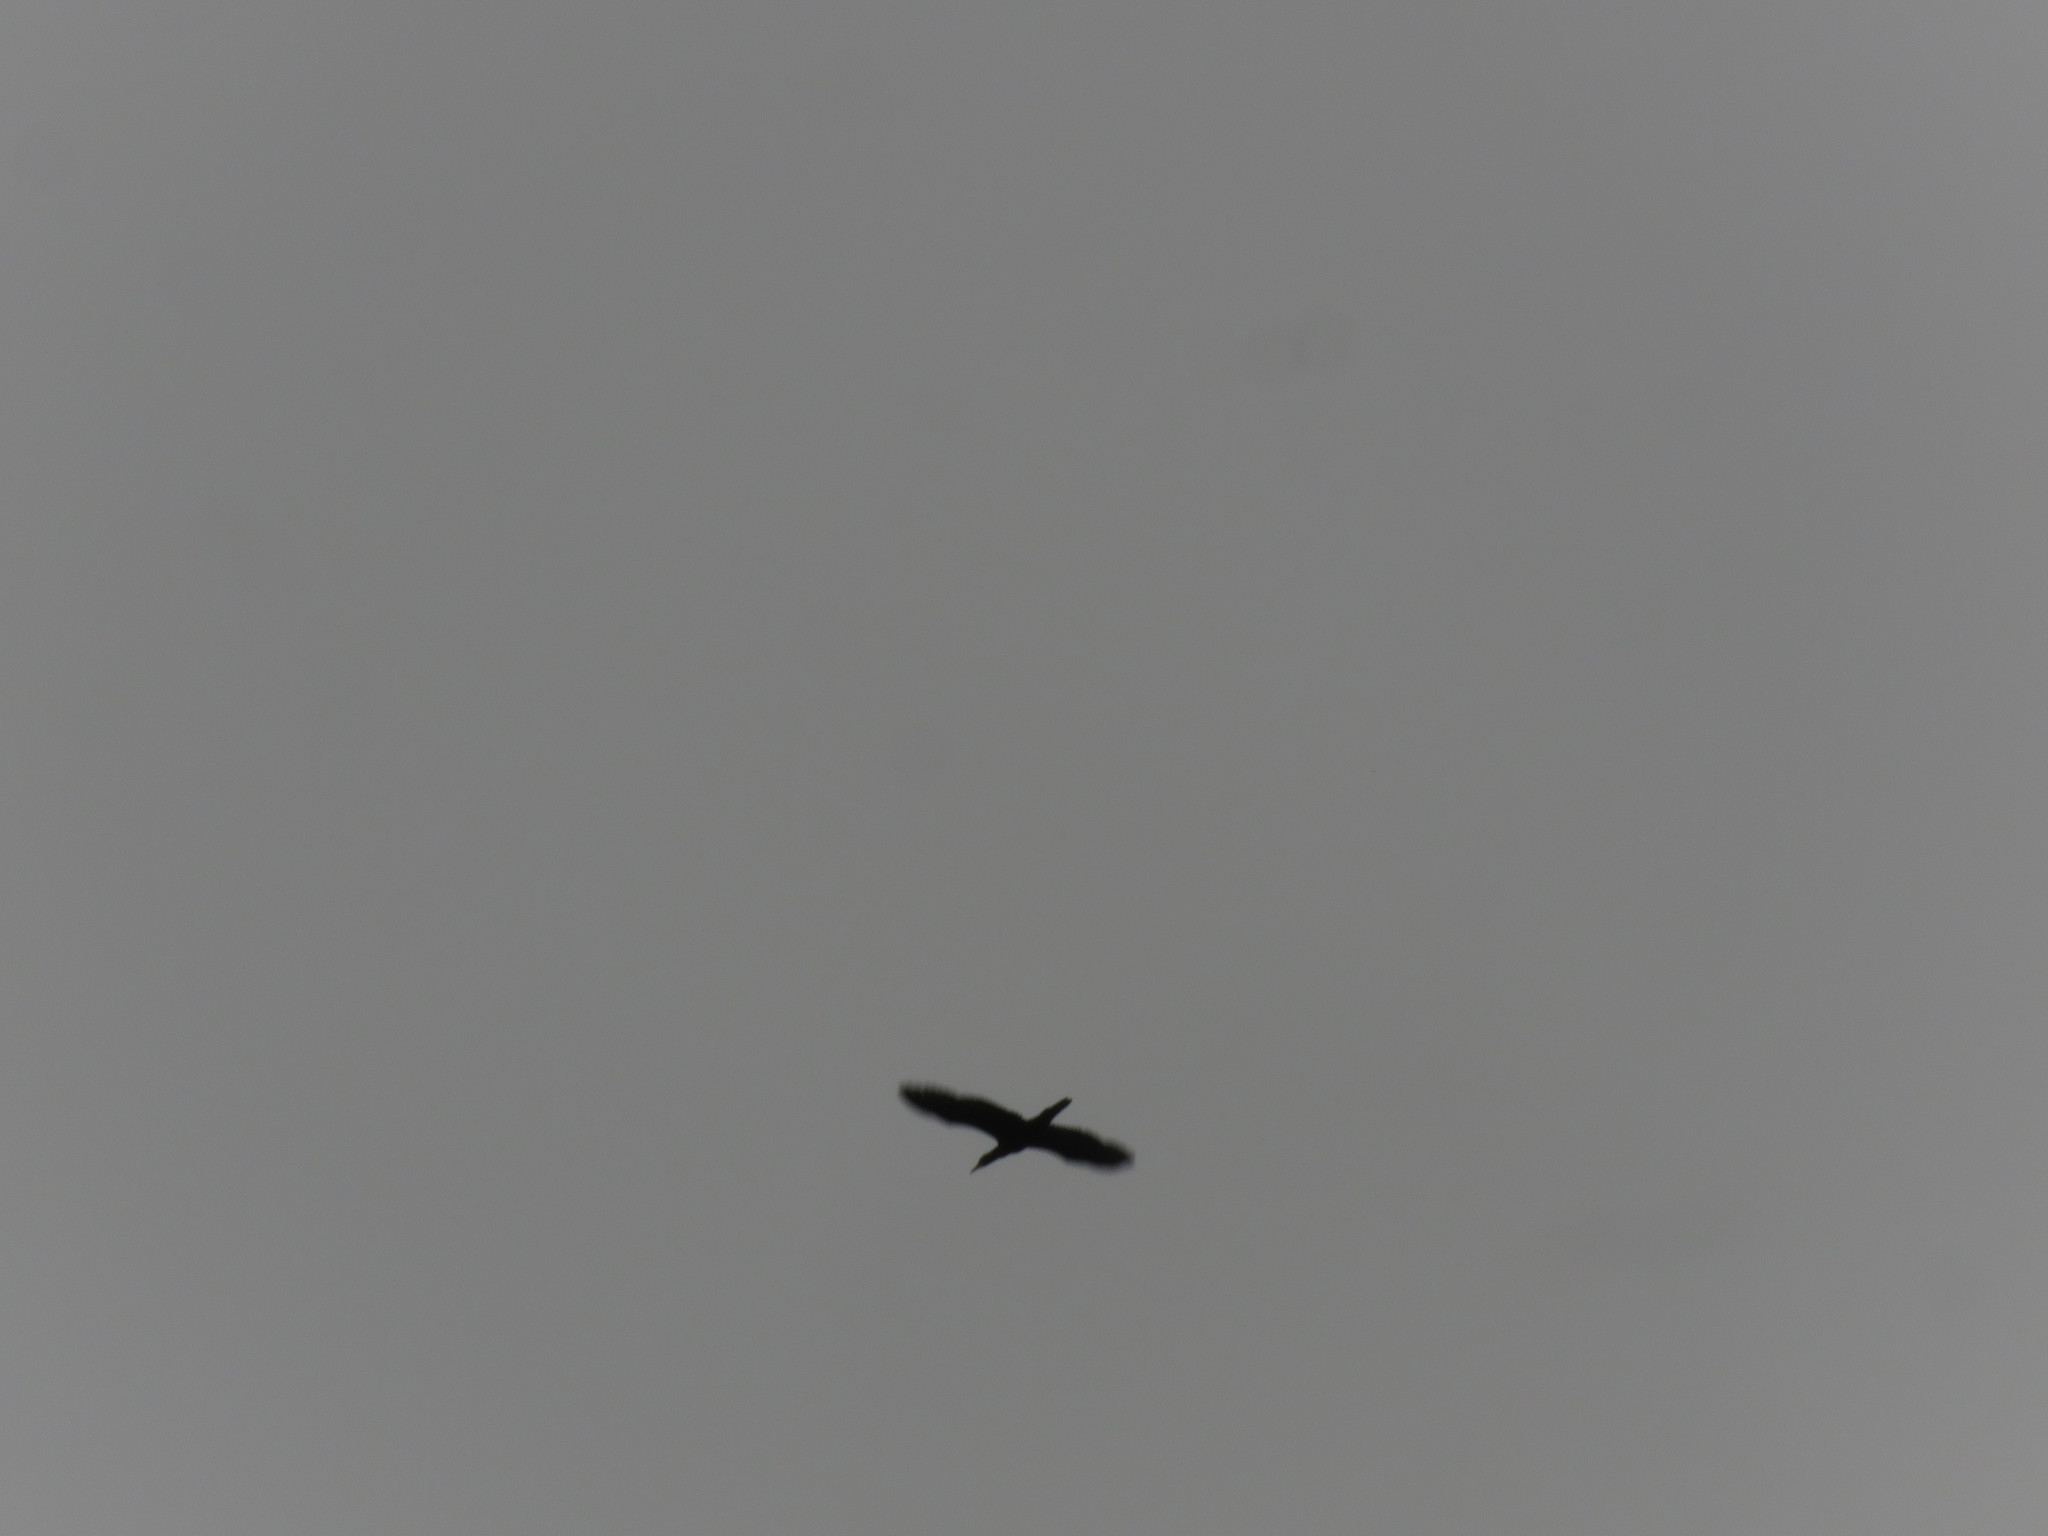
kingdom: Animalia
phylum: Chordata
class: Aves
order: Suliformes
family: Phalacrocoracidae
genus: Phalacrocorax
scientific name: Phalacrocorax brasilianus
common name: Neotropic cormorant
